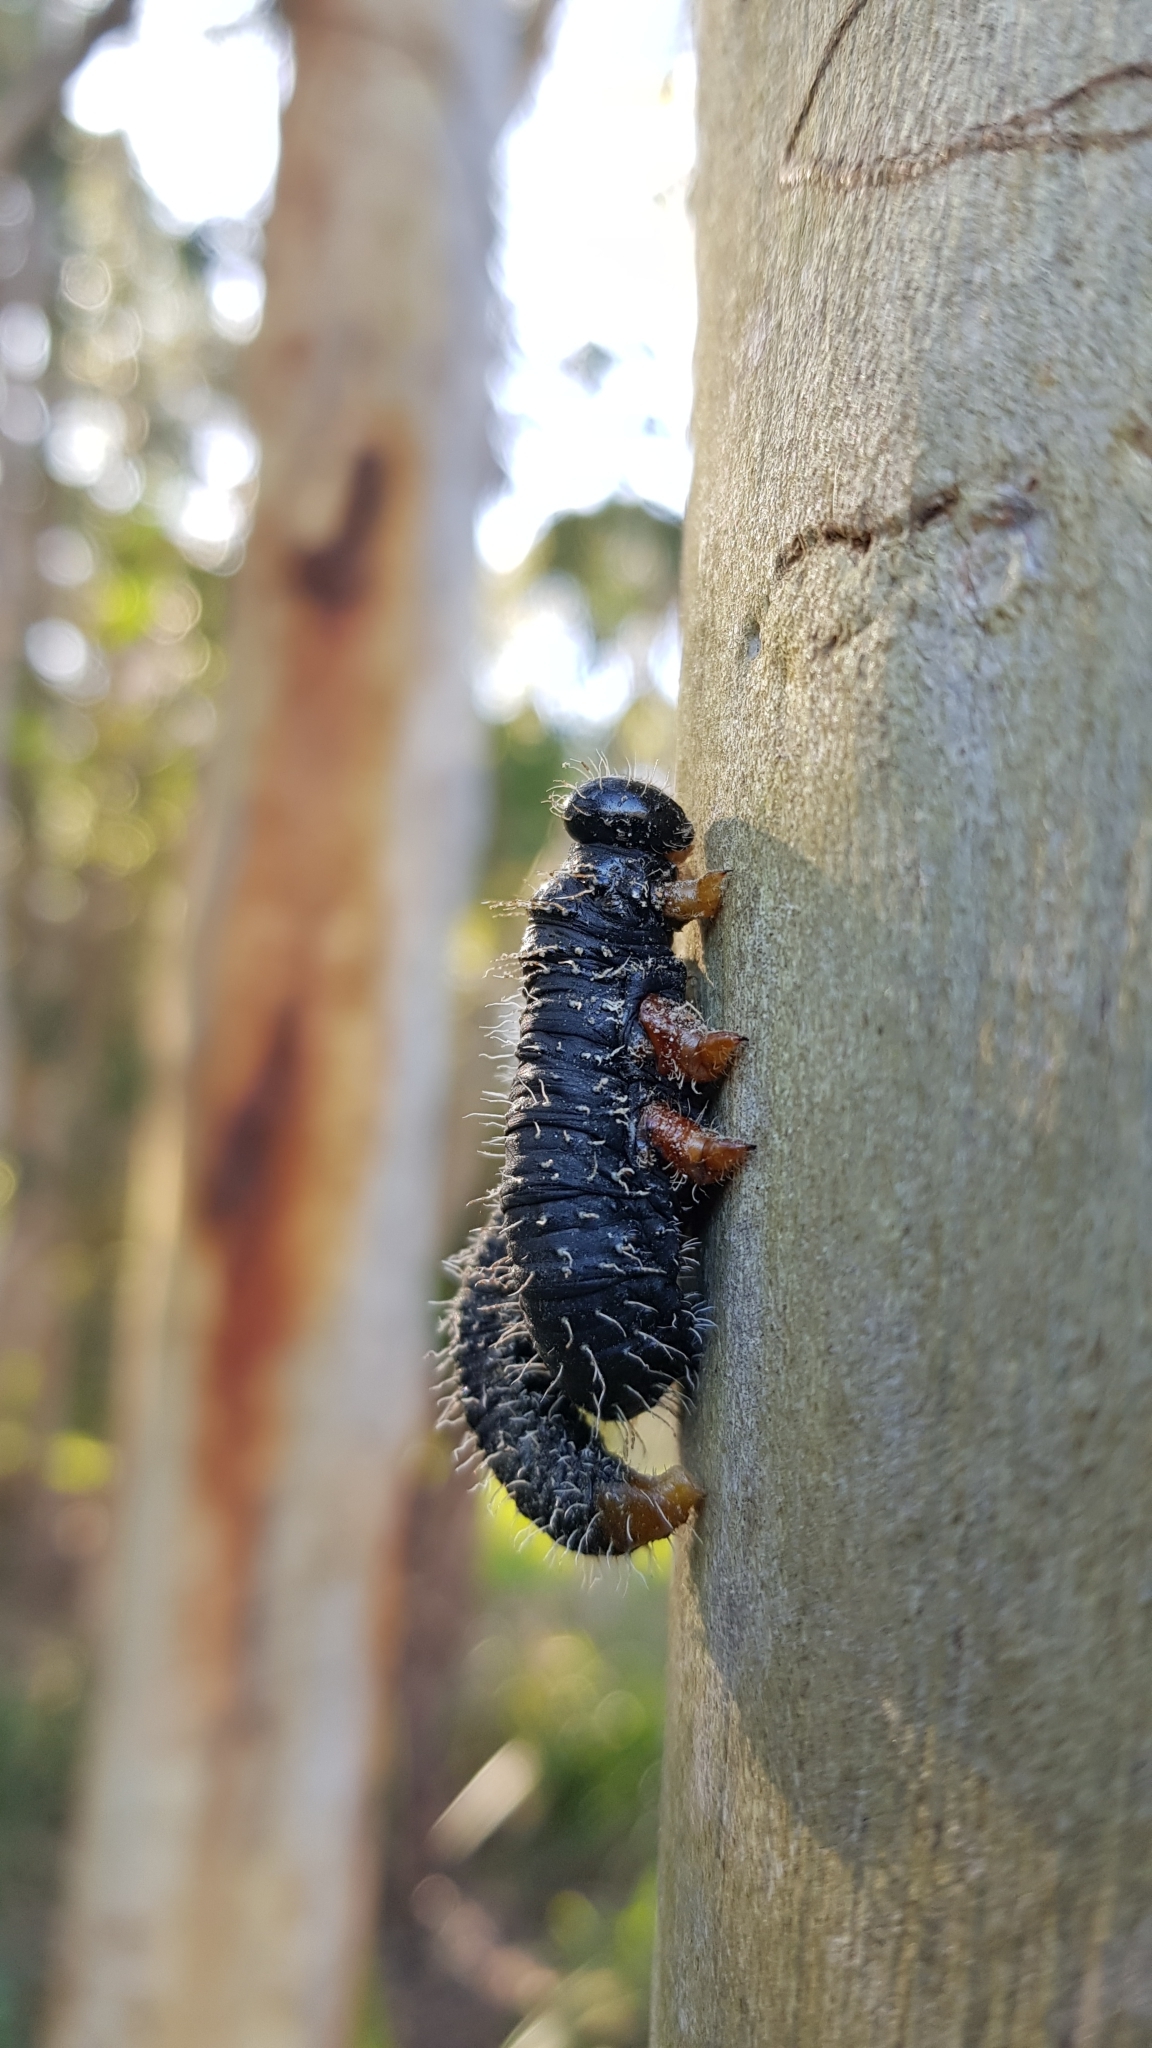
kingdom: Animalia
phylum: Arthropoda
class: Insecta
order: Hymenoptera
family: Pergidae
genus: Perga
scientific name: Perga affinis
